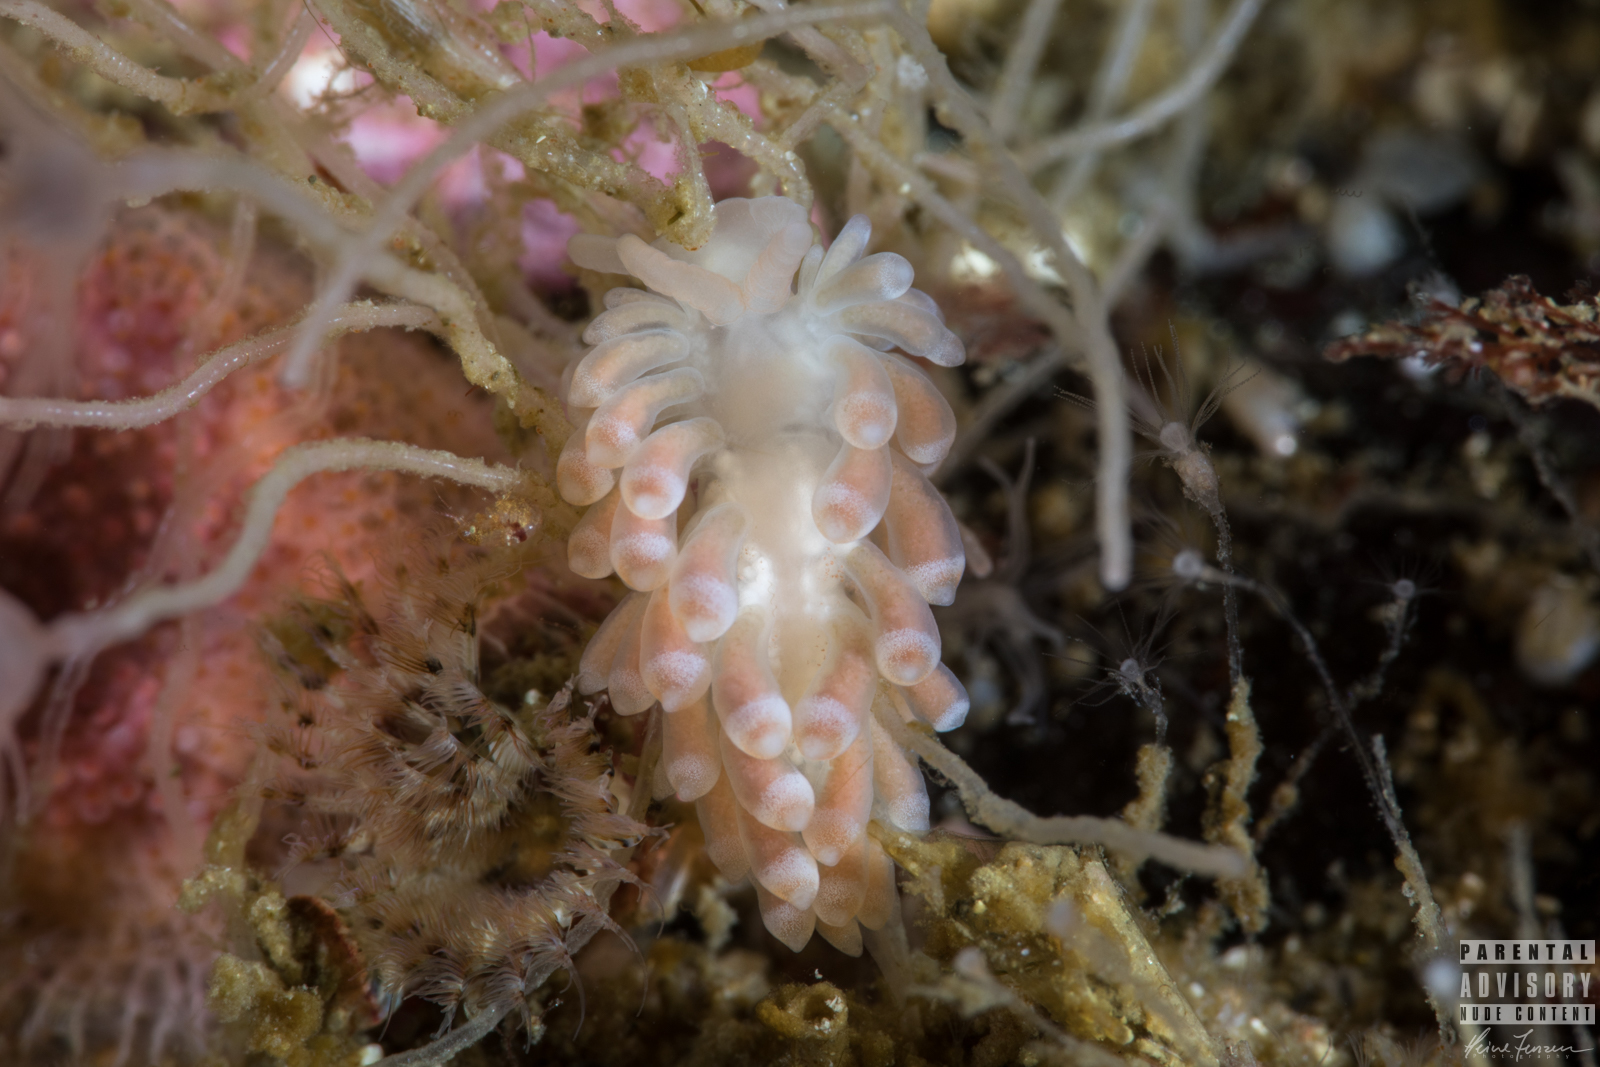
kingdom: Animalia
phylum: Mollusca
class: Gastropoda
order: Nudibranchia
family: Trinchesiidae
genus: Catriona
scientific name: Catriona aurantia
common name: Corange-tip cuthona
